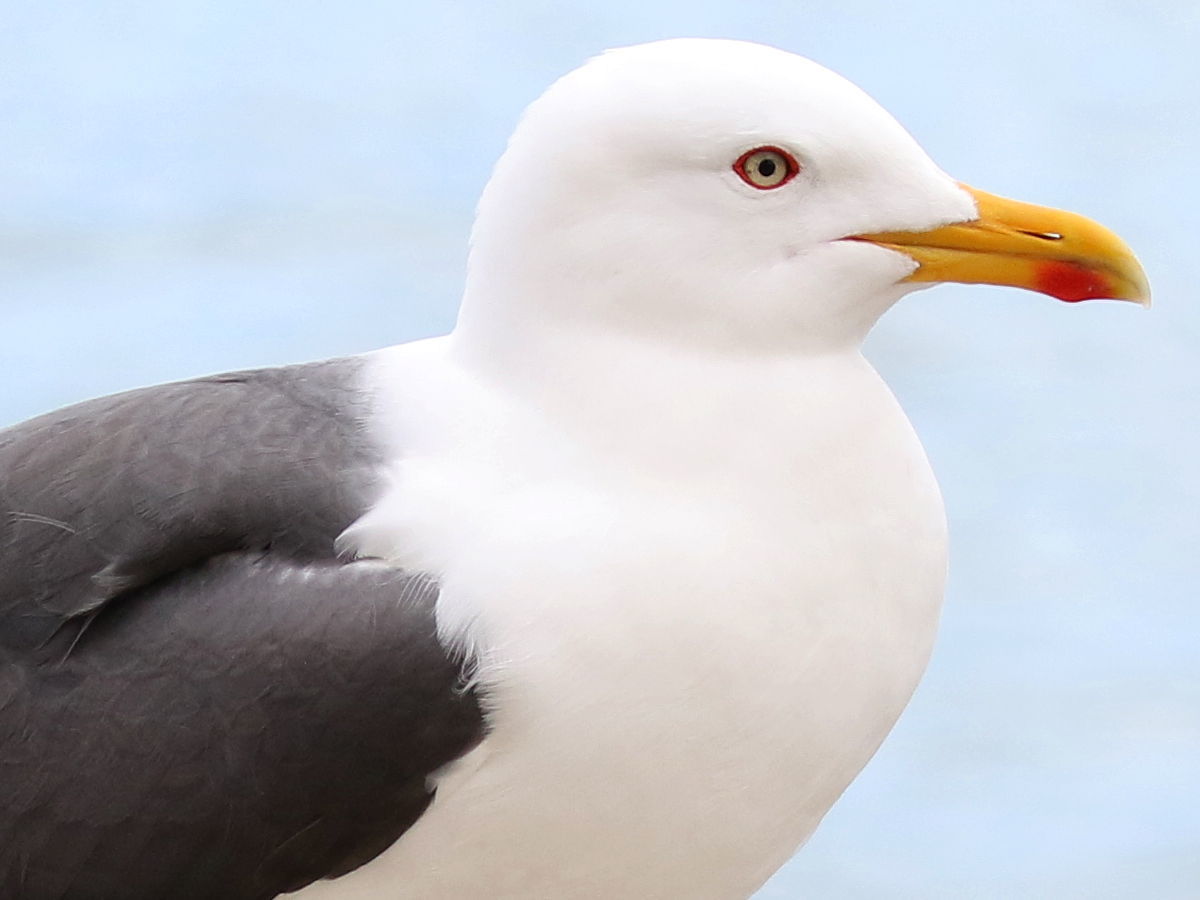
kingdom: Animalia
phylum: Chordata
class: Aves
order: Charadriiformes
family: Laridae
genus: Larus
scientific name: Larus fuscus
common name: Lesser black-backed gull
